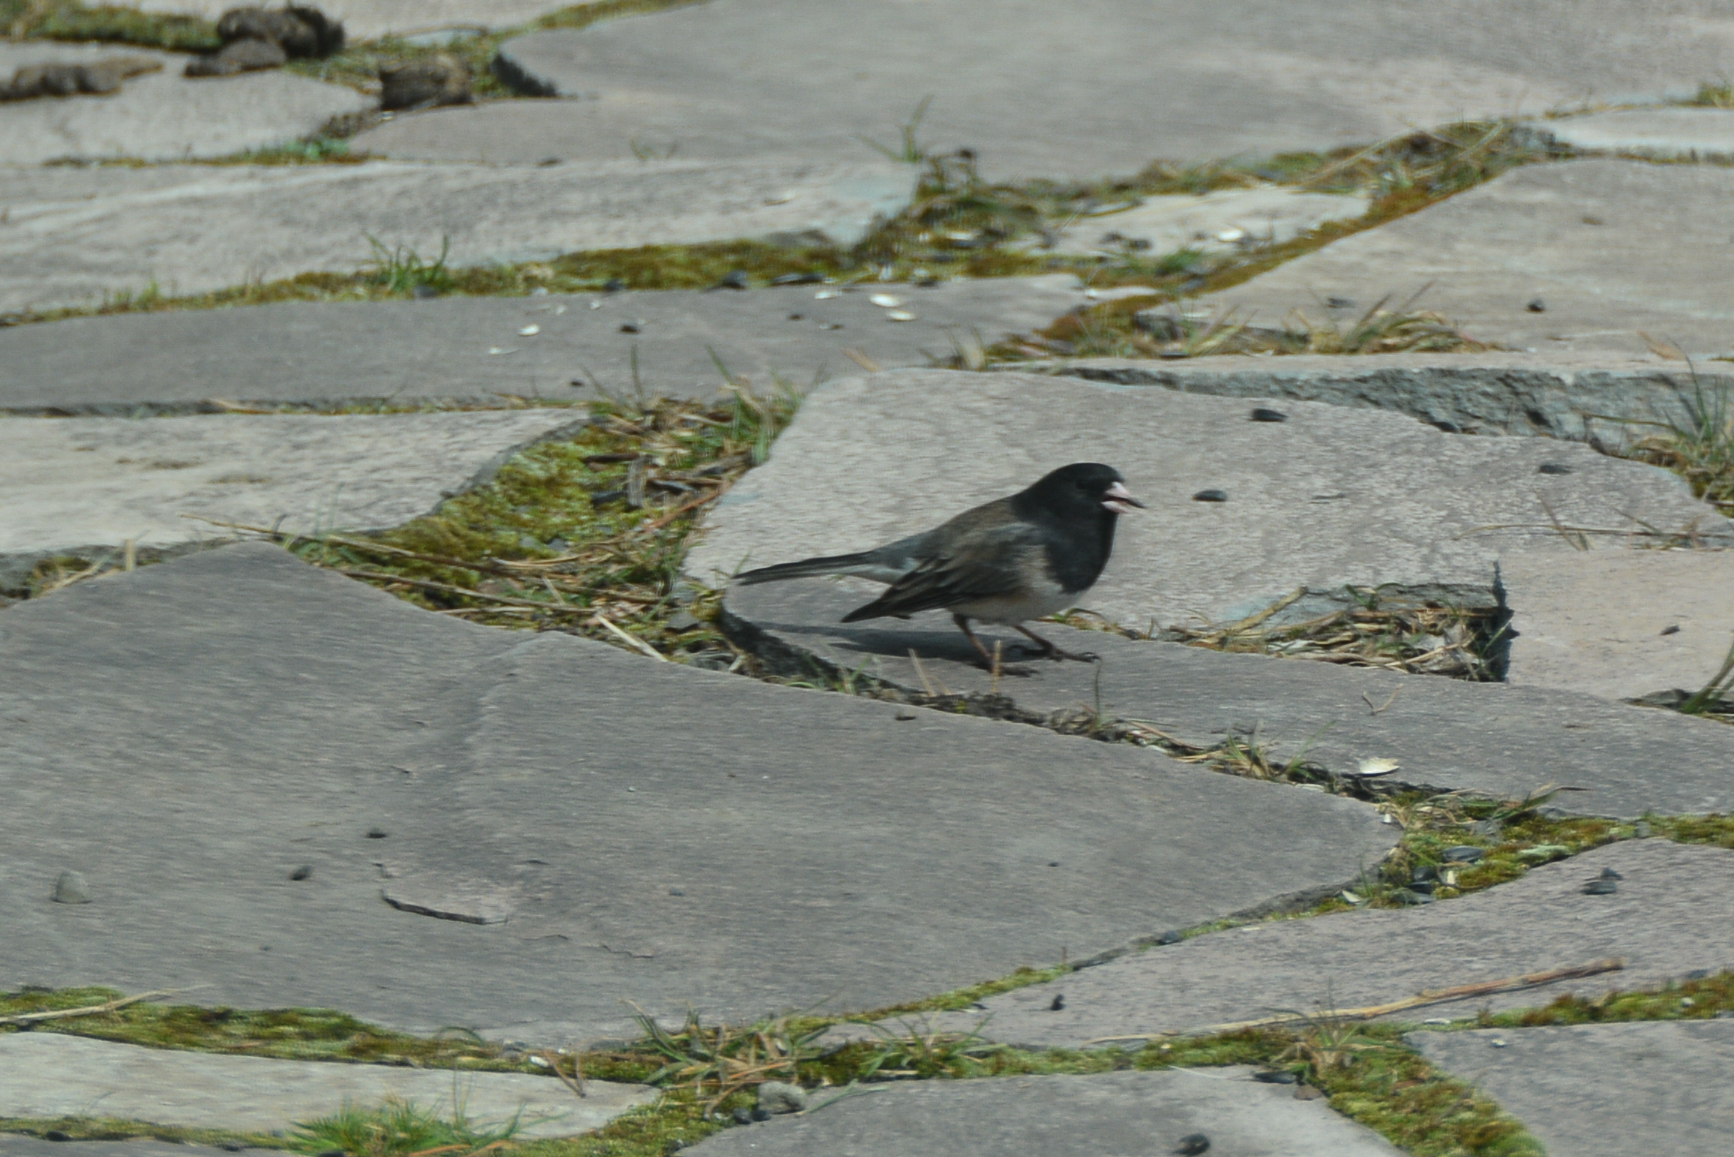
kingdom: Animalia
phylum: Chordata
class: Aves
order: Passeriformes
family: Passerellidae
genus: Junco
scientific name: Junco hyemalis
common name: Dark-eyed junco
